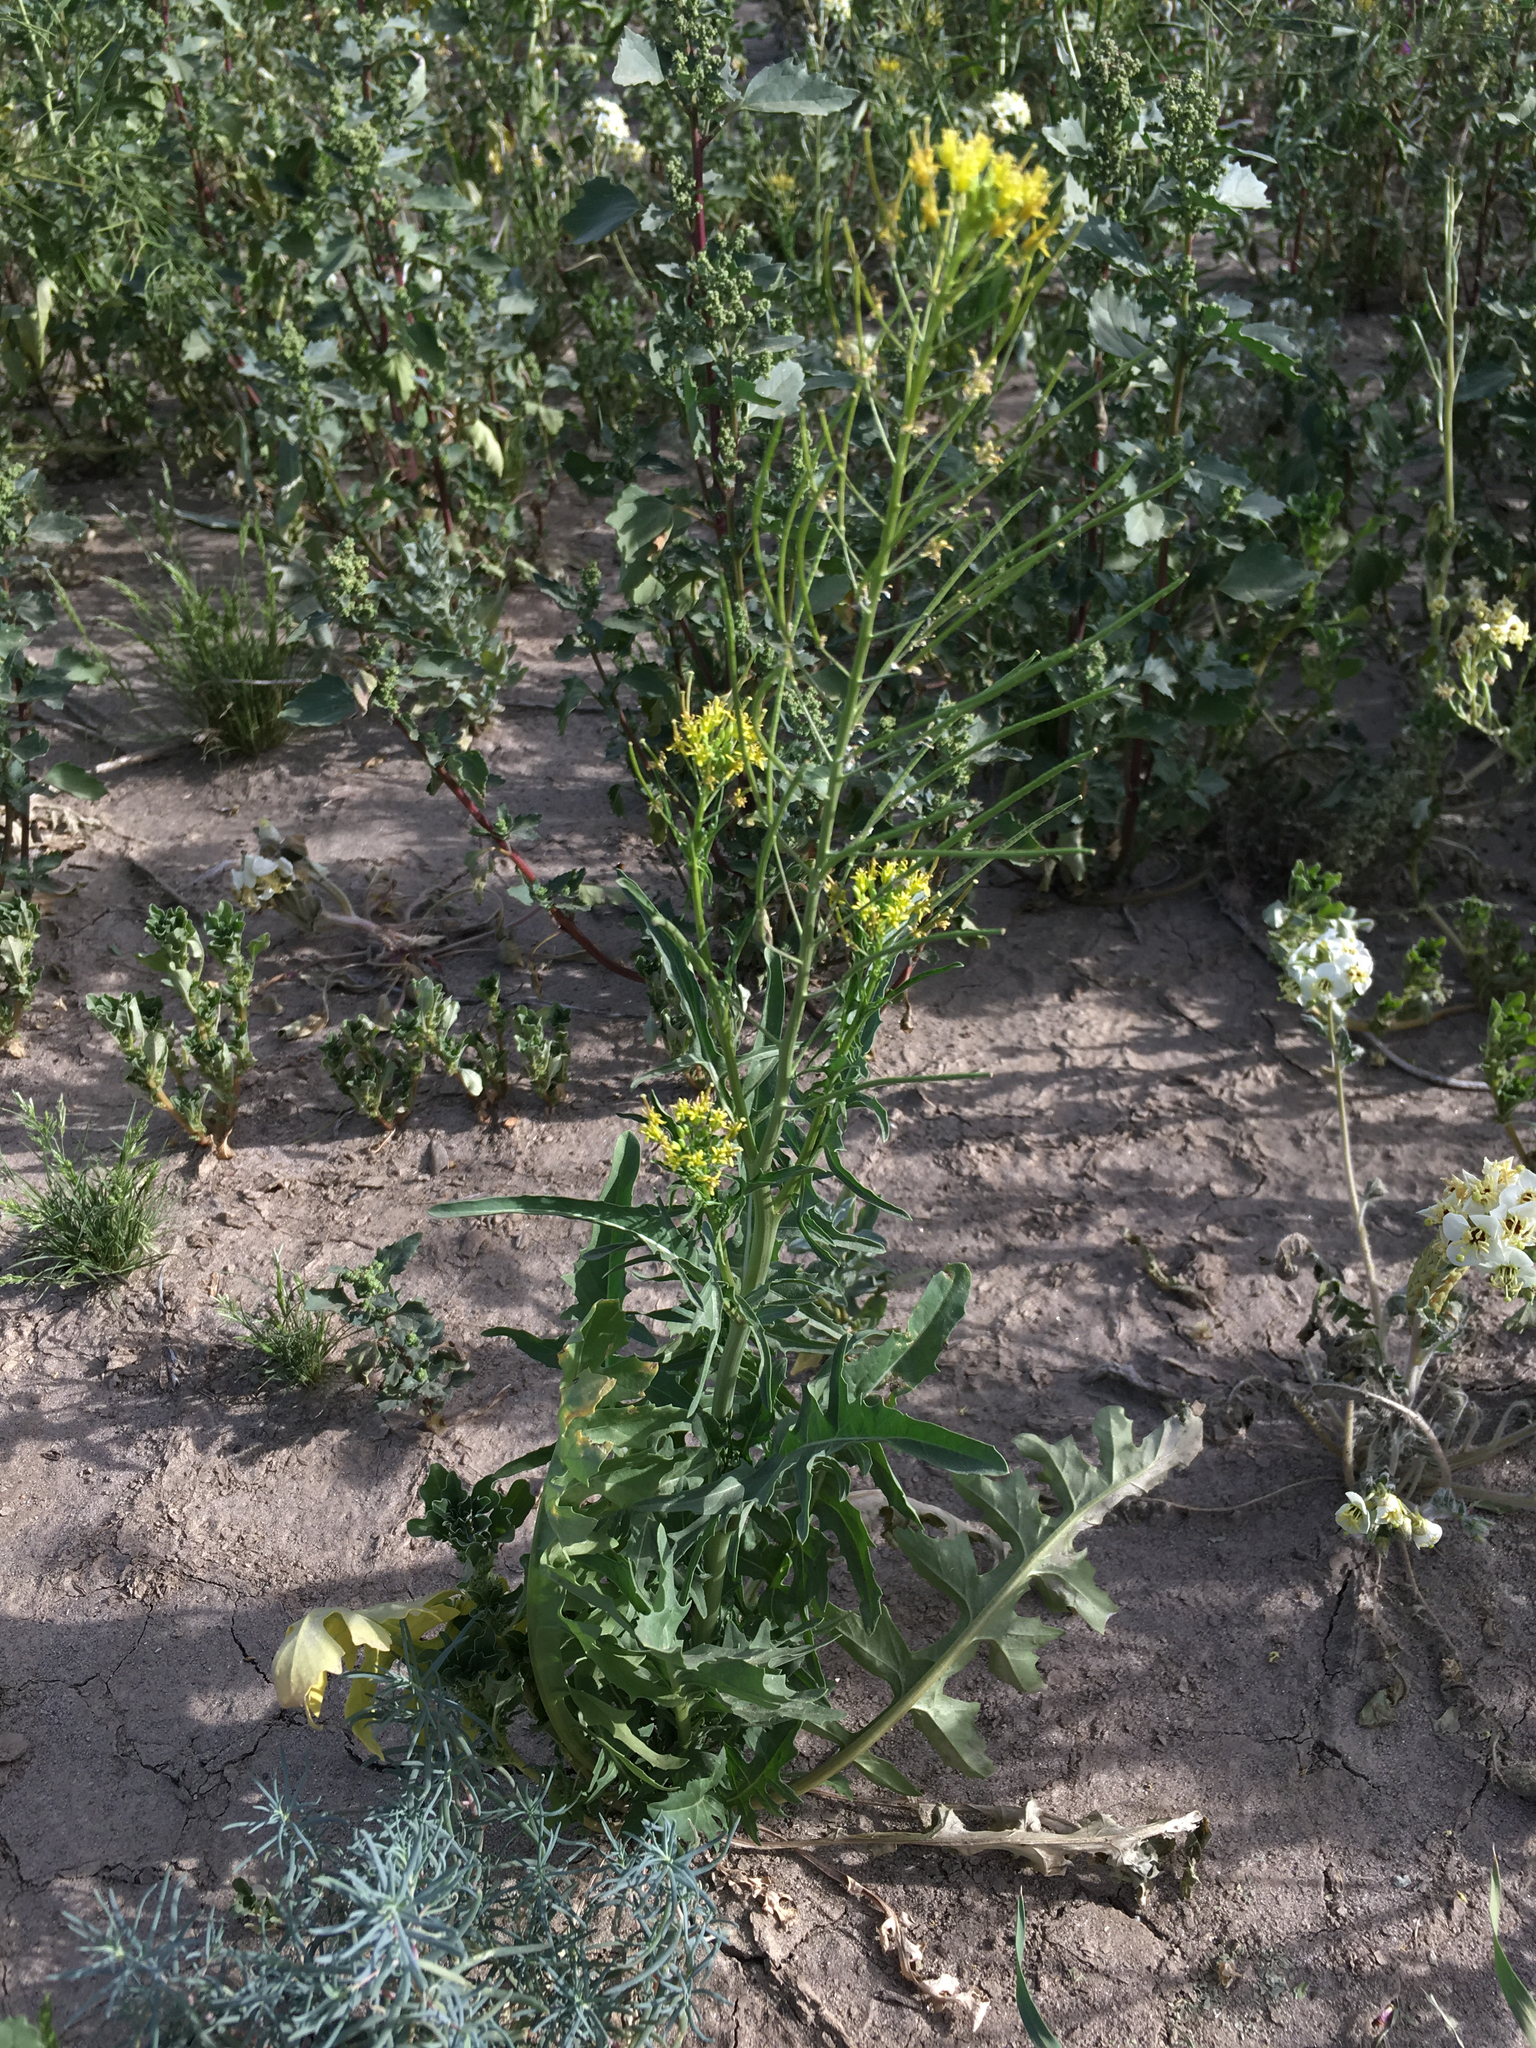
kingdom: Plantae
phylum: Tracheophyta
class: Magnoliopsida
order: Brassicales
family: Brassicaceae
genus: Sisymbrium
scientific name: Sisymbrium irio
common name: London rocket
